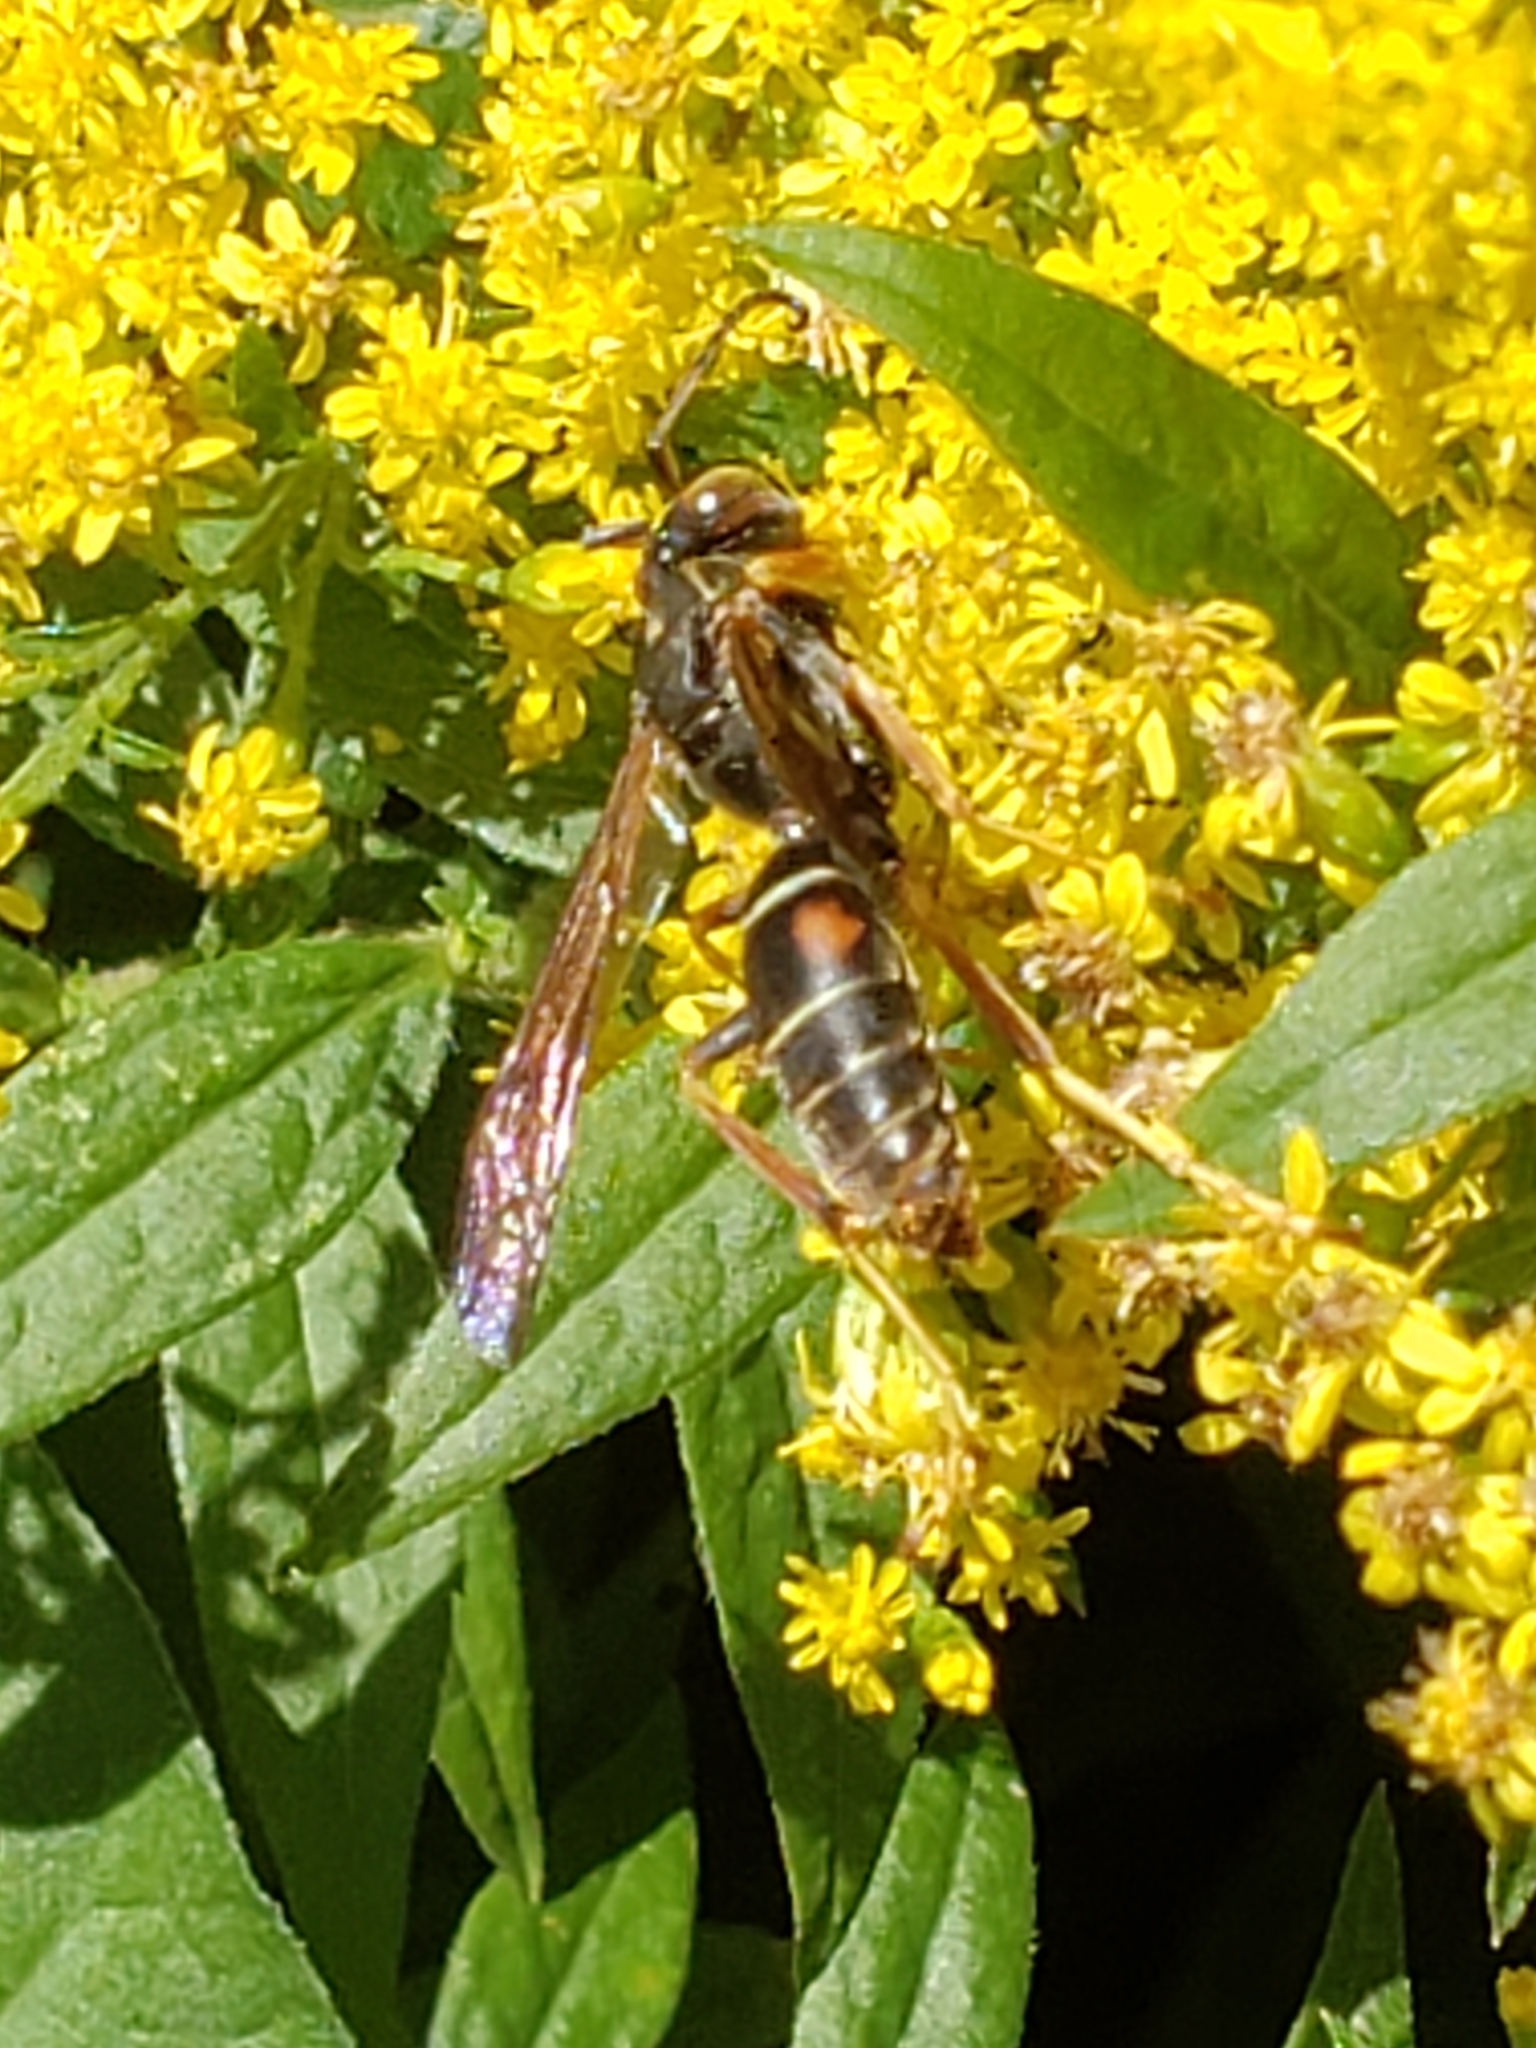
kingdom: Animalia
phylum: Arthropoda
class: Insecta
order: Hymenoptera
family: Eumenidae
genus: Polistes
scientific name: Polistes fuscatus
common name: Dark paper wasp
